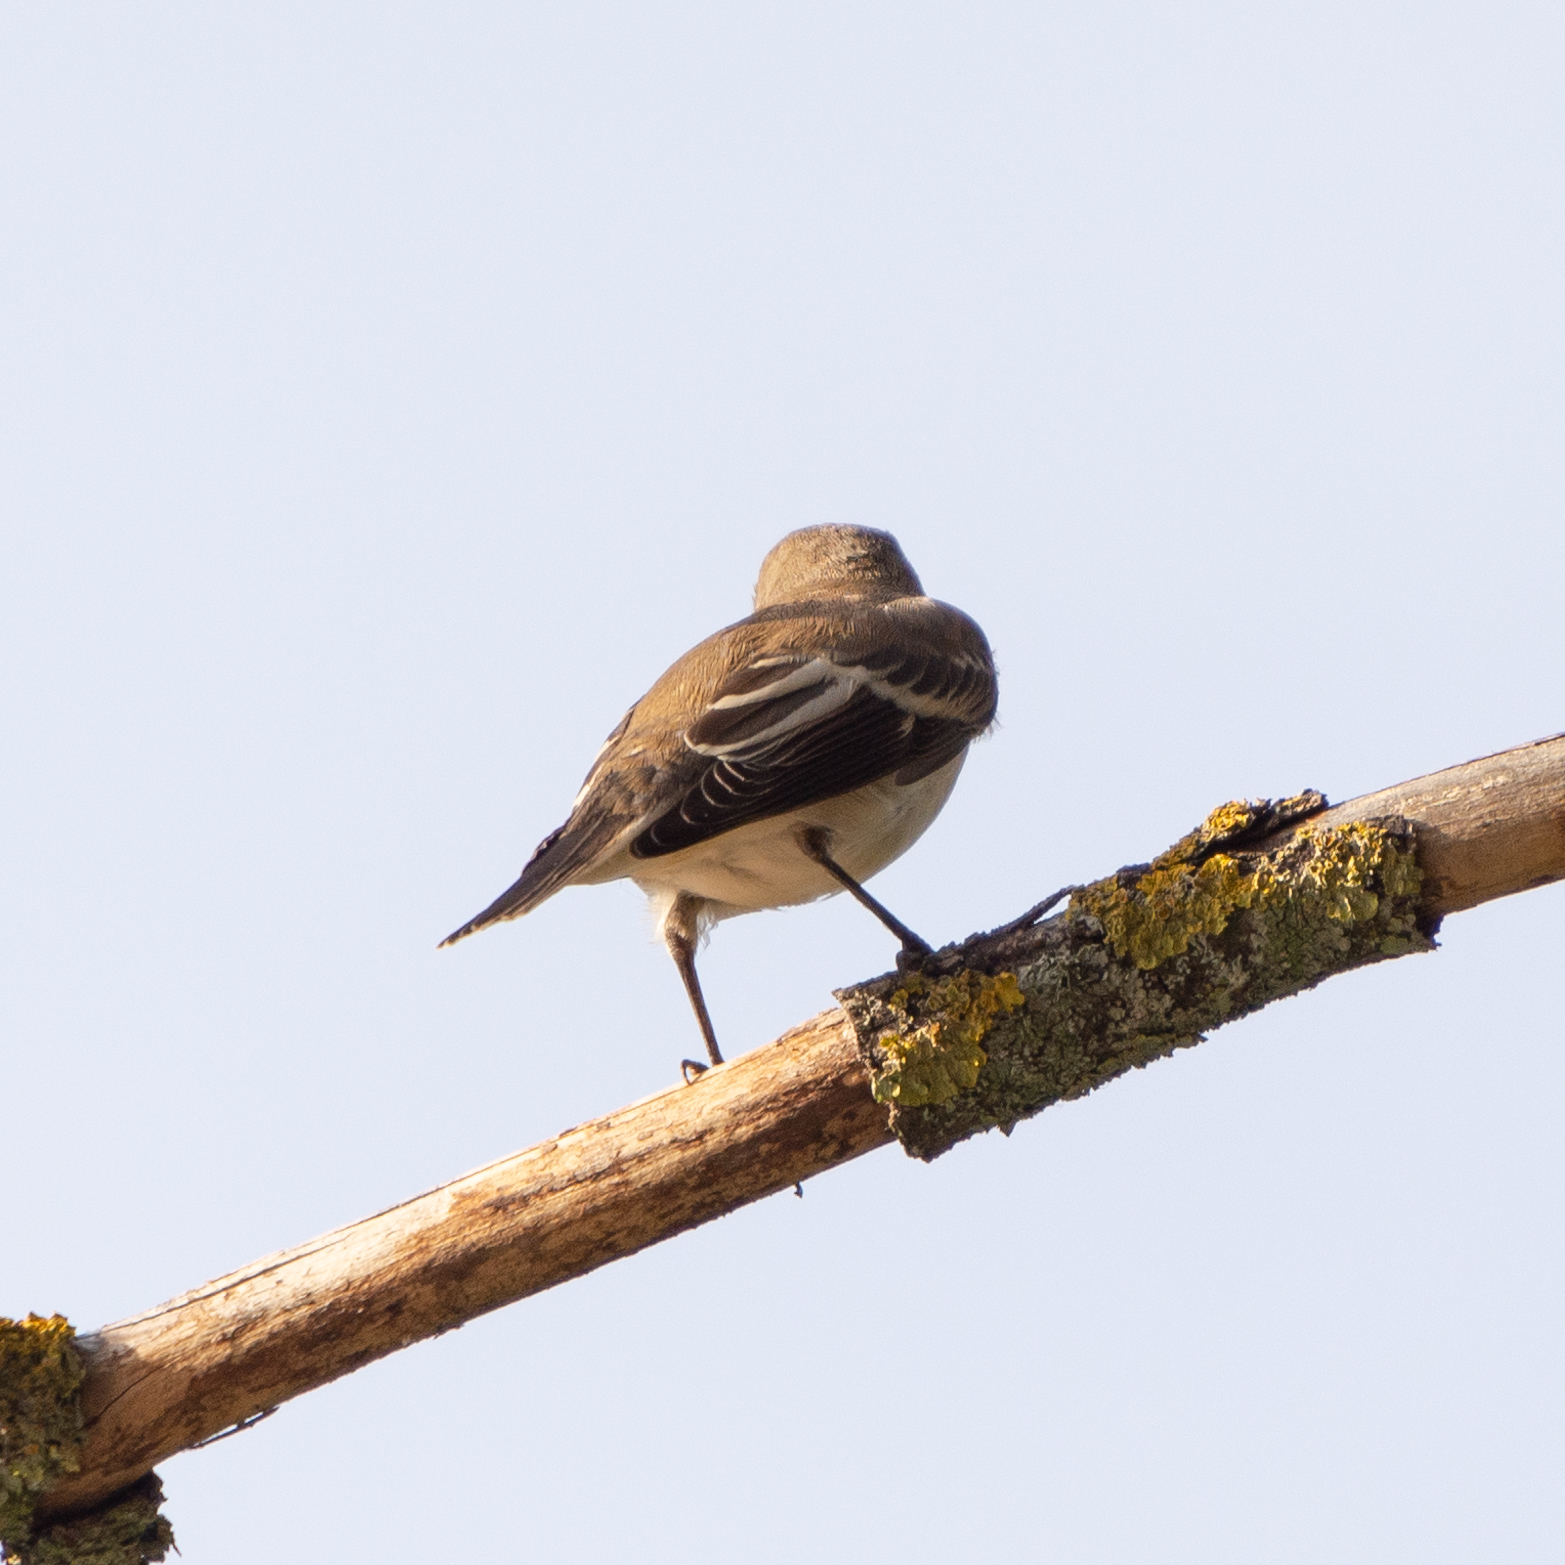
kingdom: Animalia
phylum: Chordata
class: Aves
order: Passeriformes
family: Muscicapidae
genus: Ficedula
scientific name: Ficedula hypoleuca
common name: European pied flycatcher
